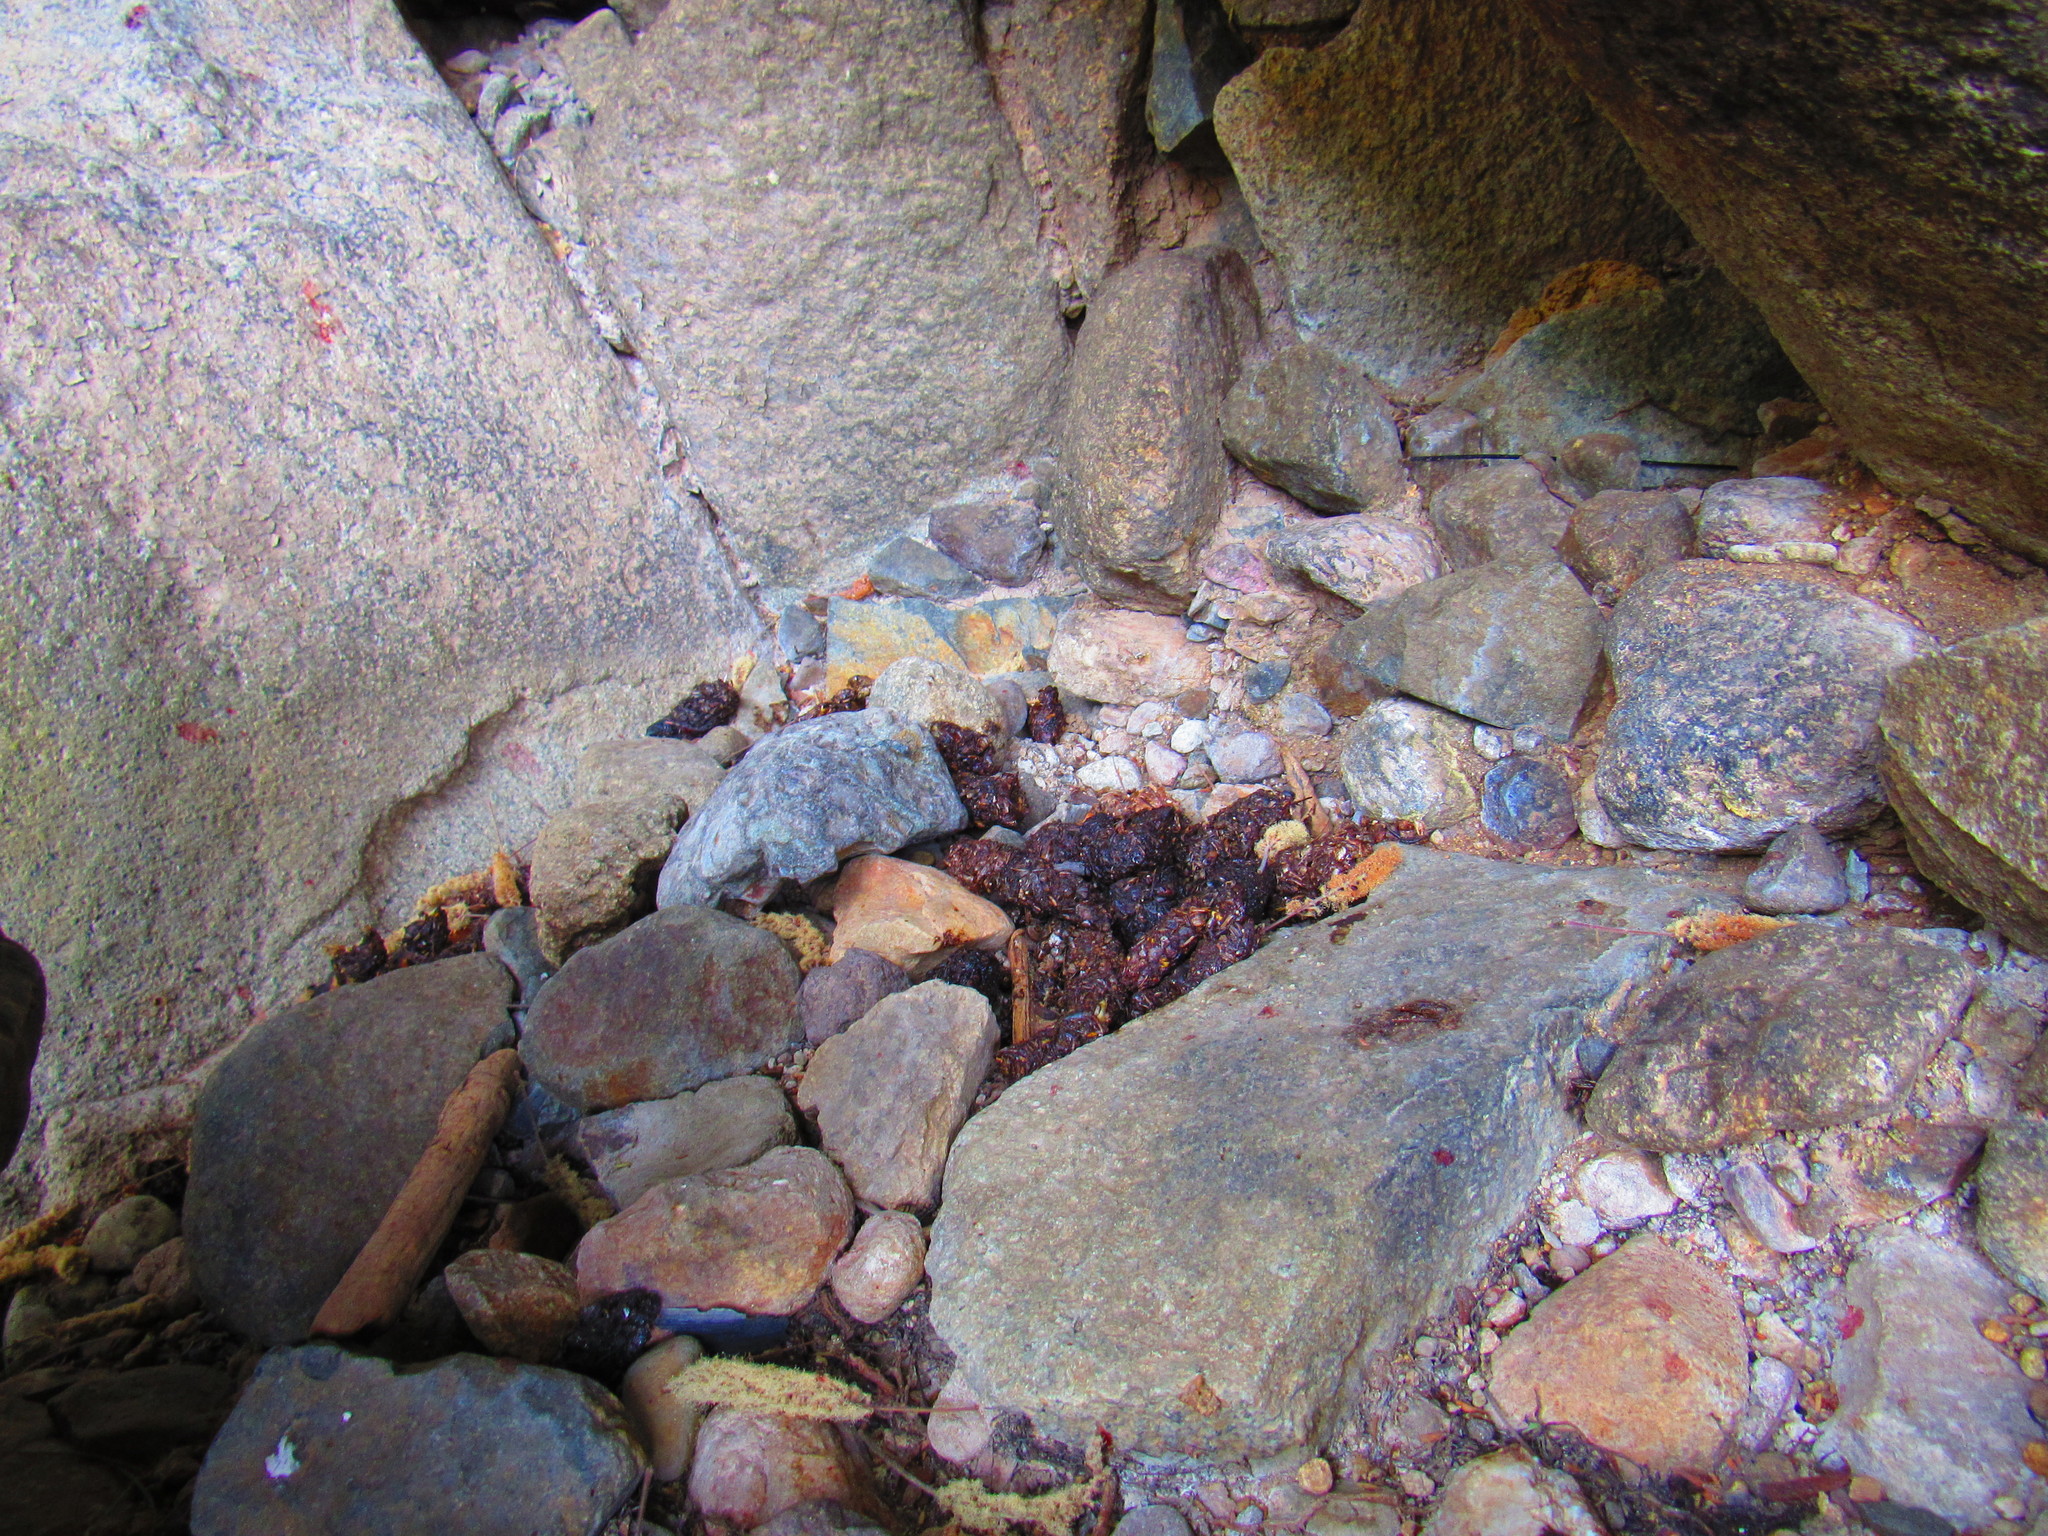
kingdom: Animalia
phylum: Chordata
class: Mammalia
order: Carnivora
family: Canidae
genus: Urocyon
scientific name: Urocyon cinereoargenteus
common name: Gray fox
